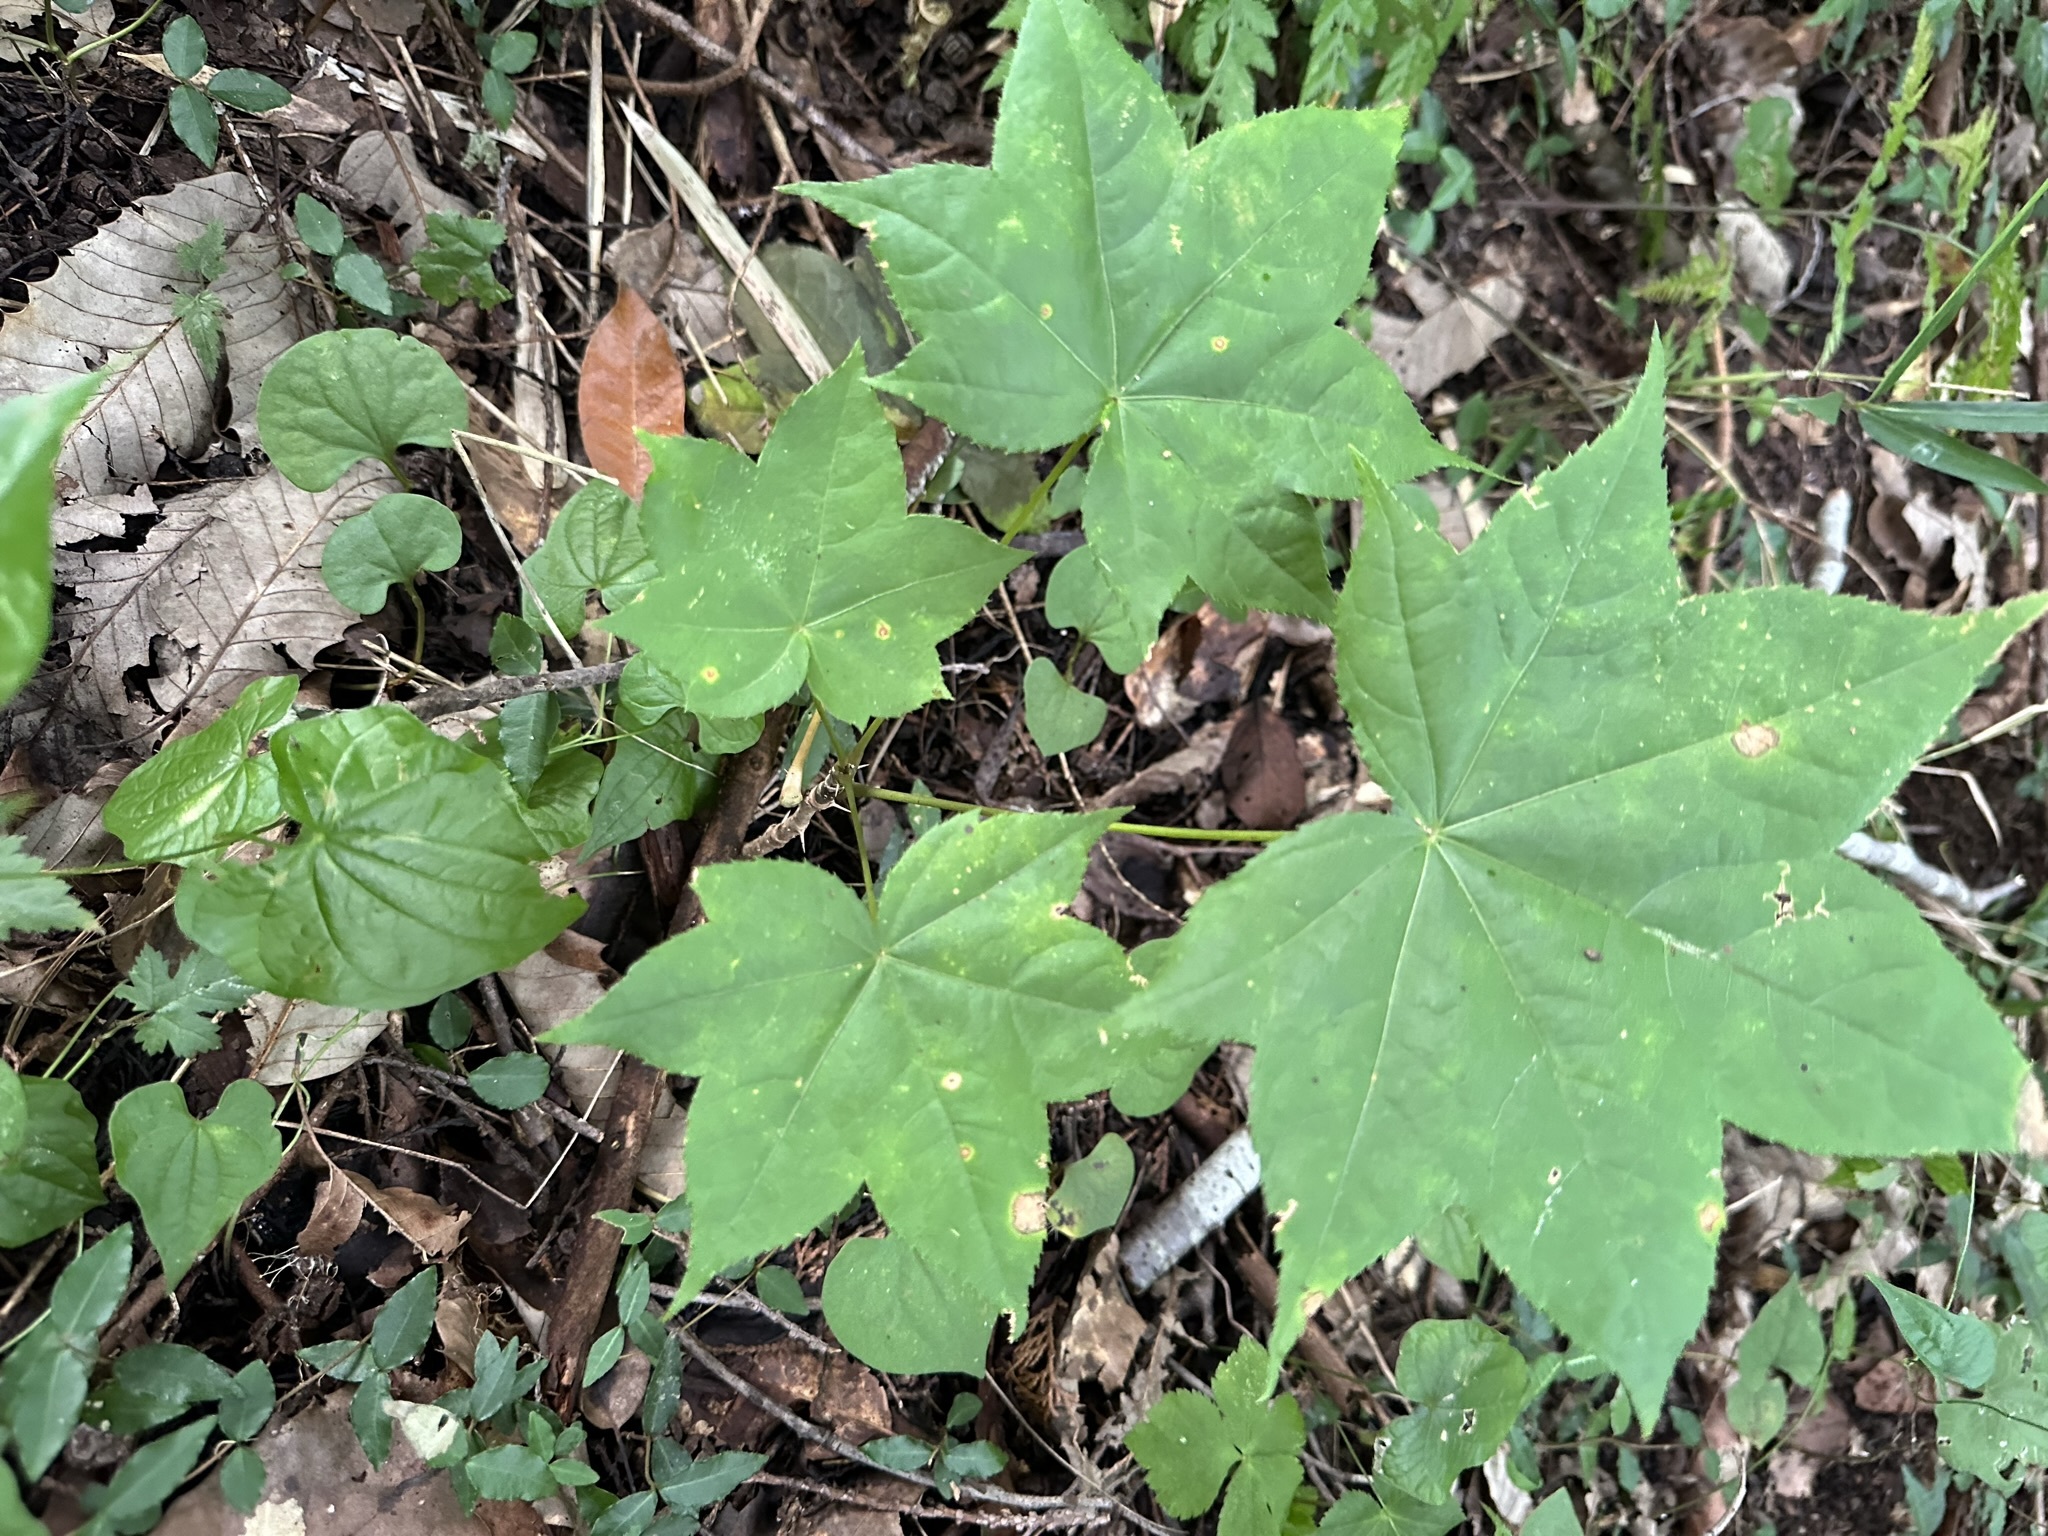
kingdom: Plantae
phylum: Tracheophyta
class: Magnoliopsida
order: Apiales
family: Araliaceae
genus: Kalopanax
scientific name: Kalopanax septemlobus
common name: Castor aralia
